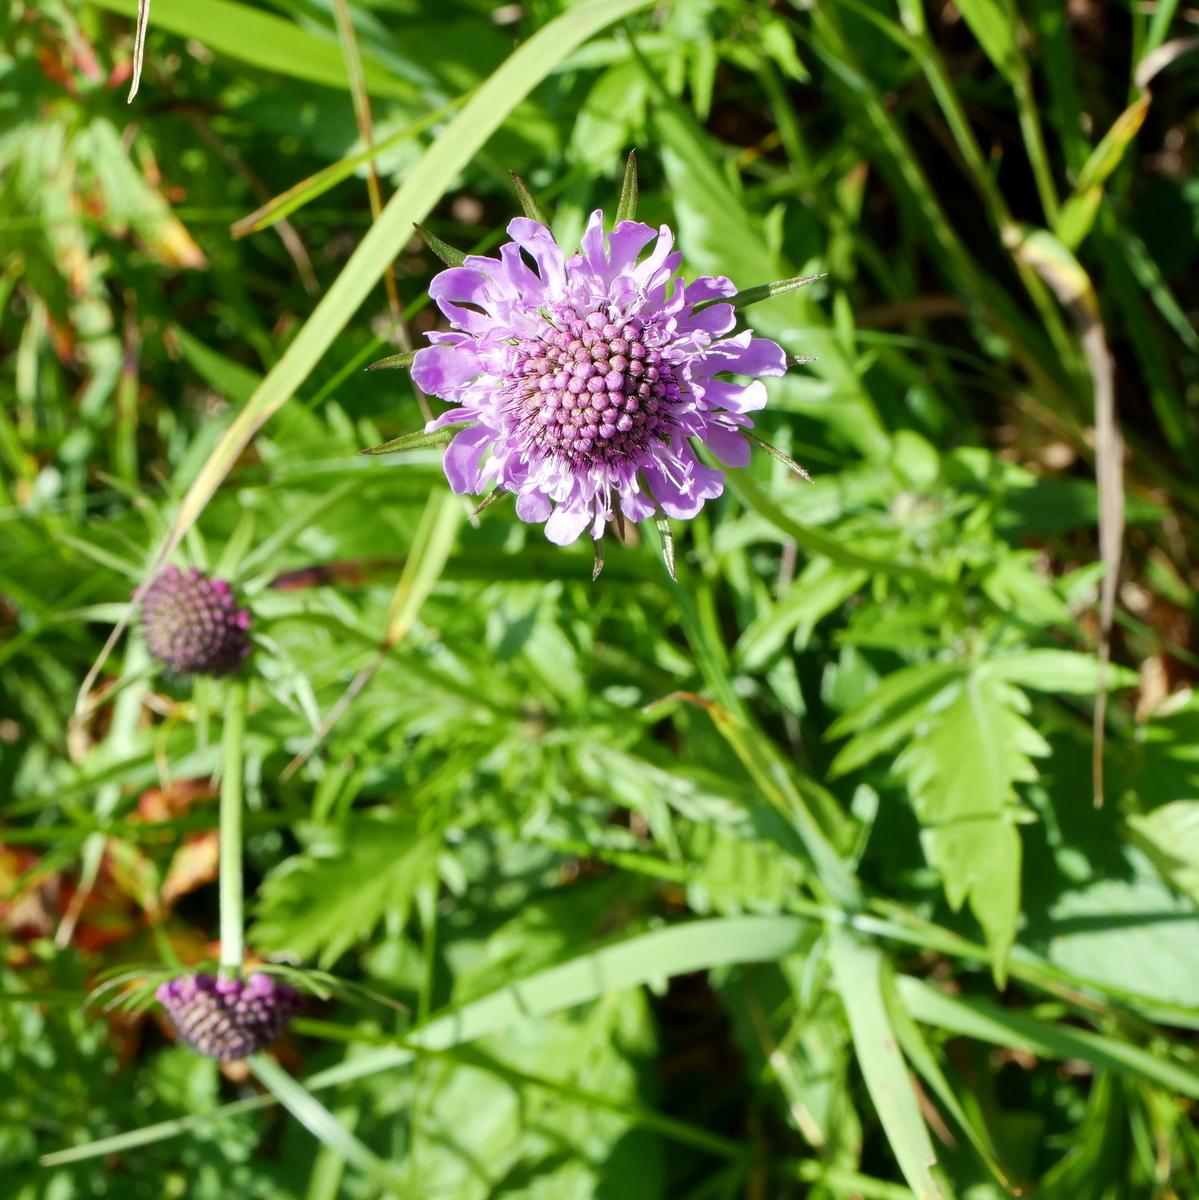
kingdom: Plantae
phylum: Tracheophyta
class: Magnoliopsida
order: Dipsacales
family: Caprifoliaceae
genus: Scabiosa
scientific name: Scabiosa lucida
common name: Shining scabious
